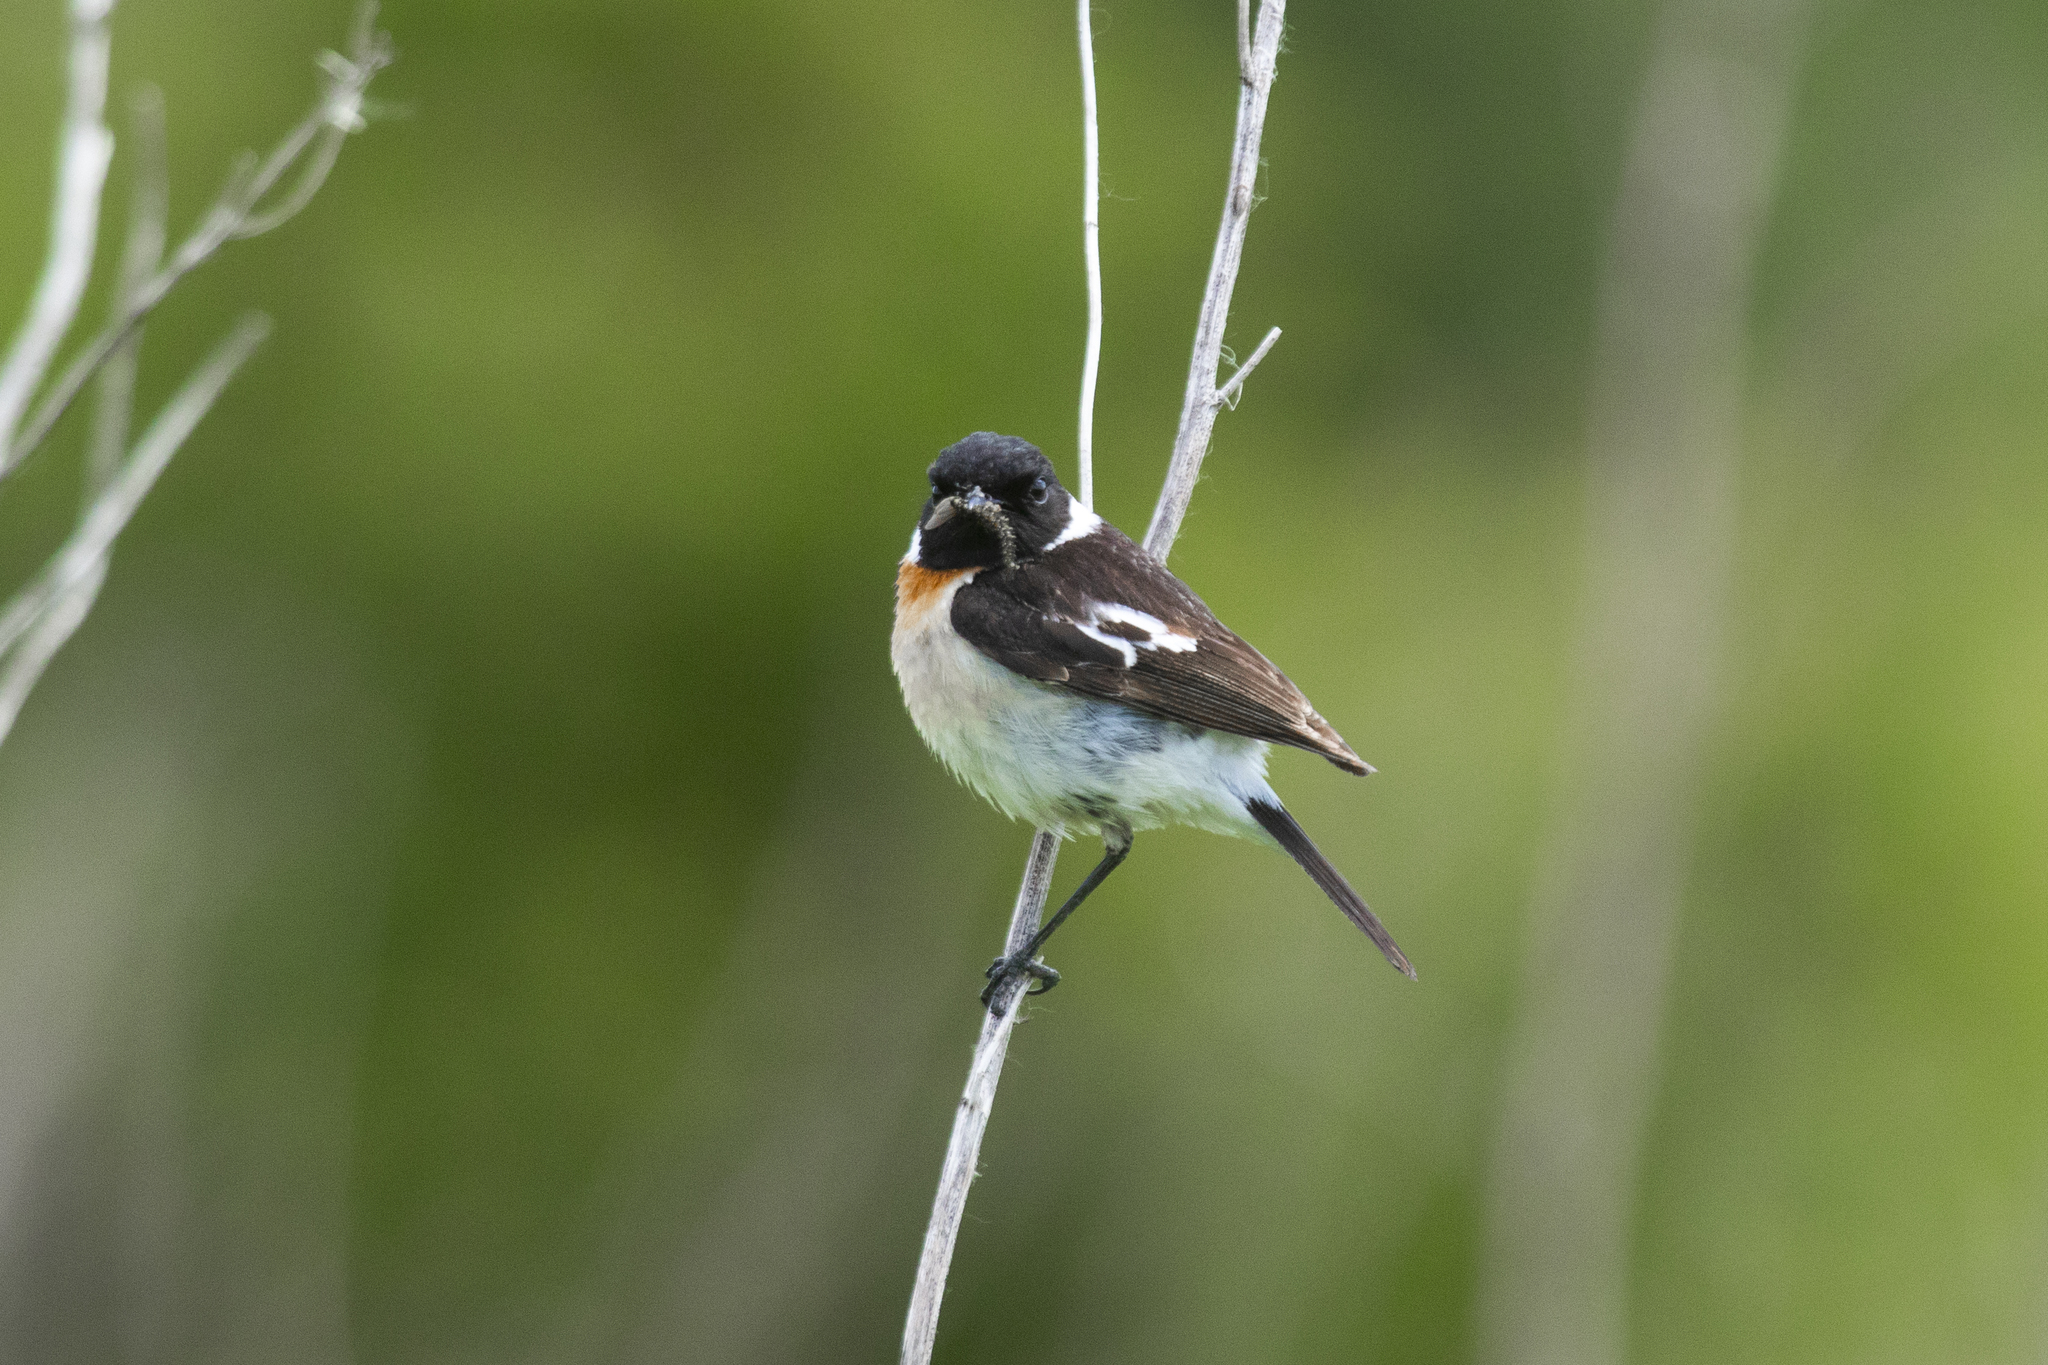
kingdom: Animalia
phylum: Chordata
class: Aves
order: Passeriformes
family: Muscicapidae
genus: Saxicola
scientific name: Saxicola maurus
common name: Siberian stonechat
